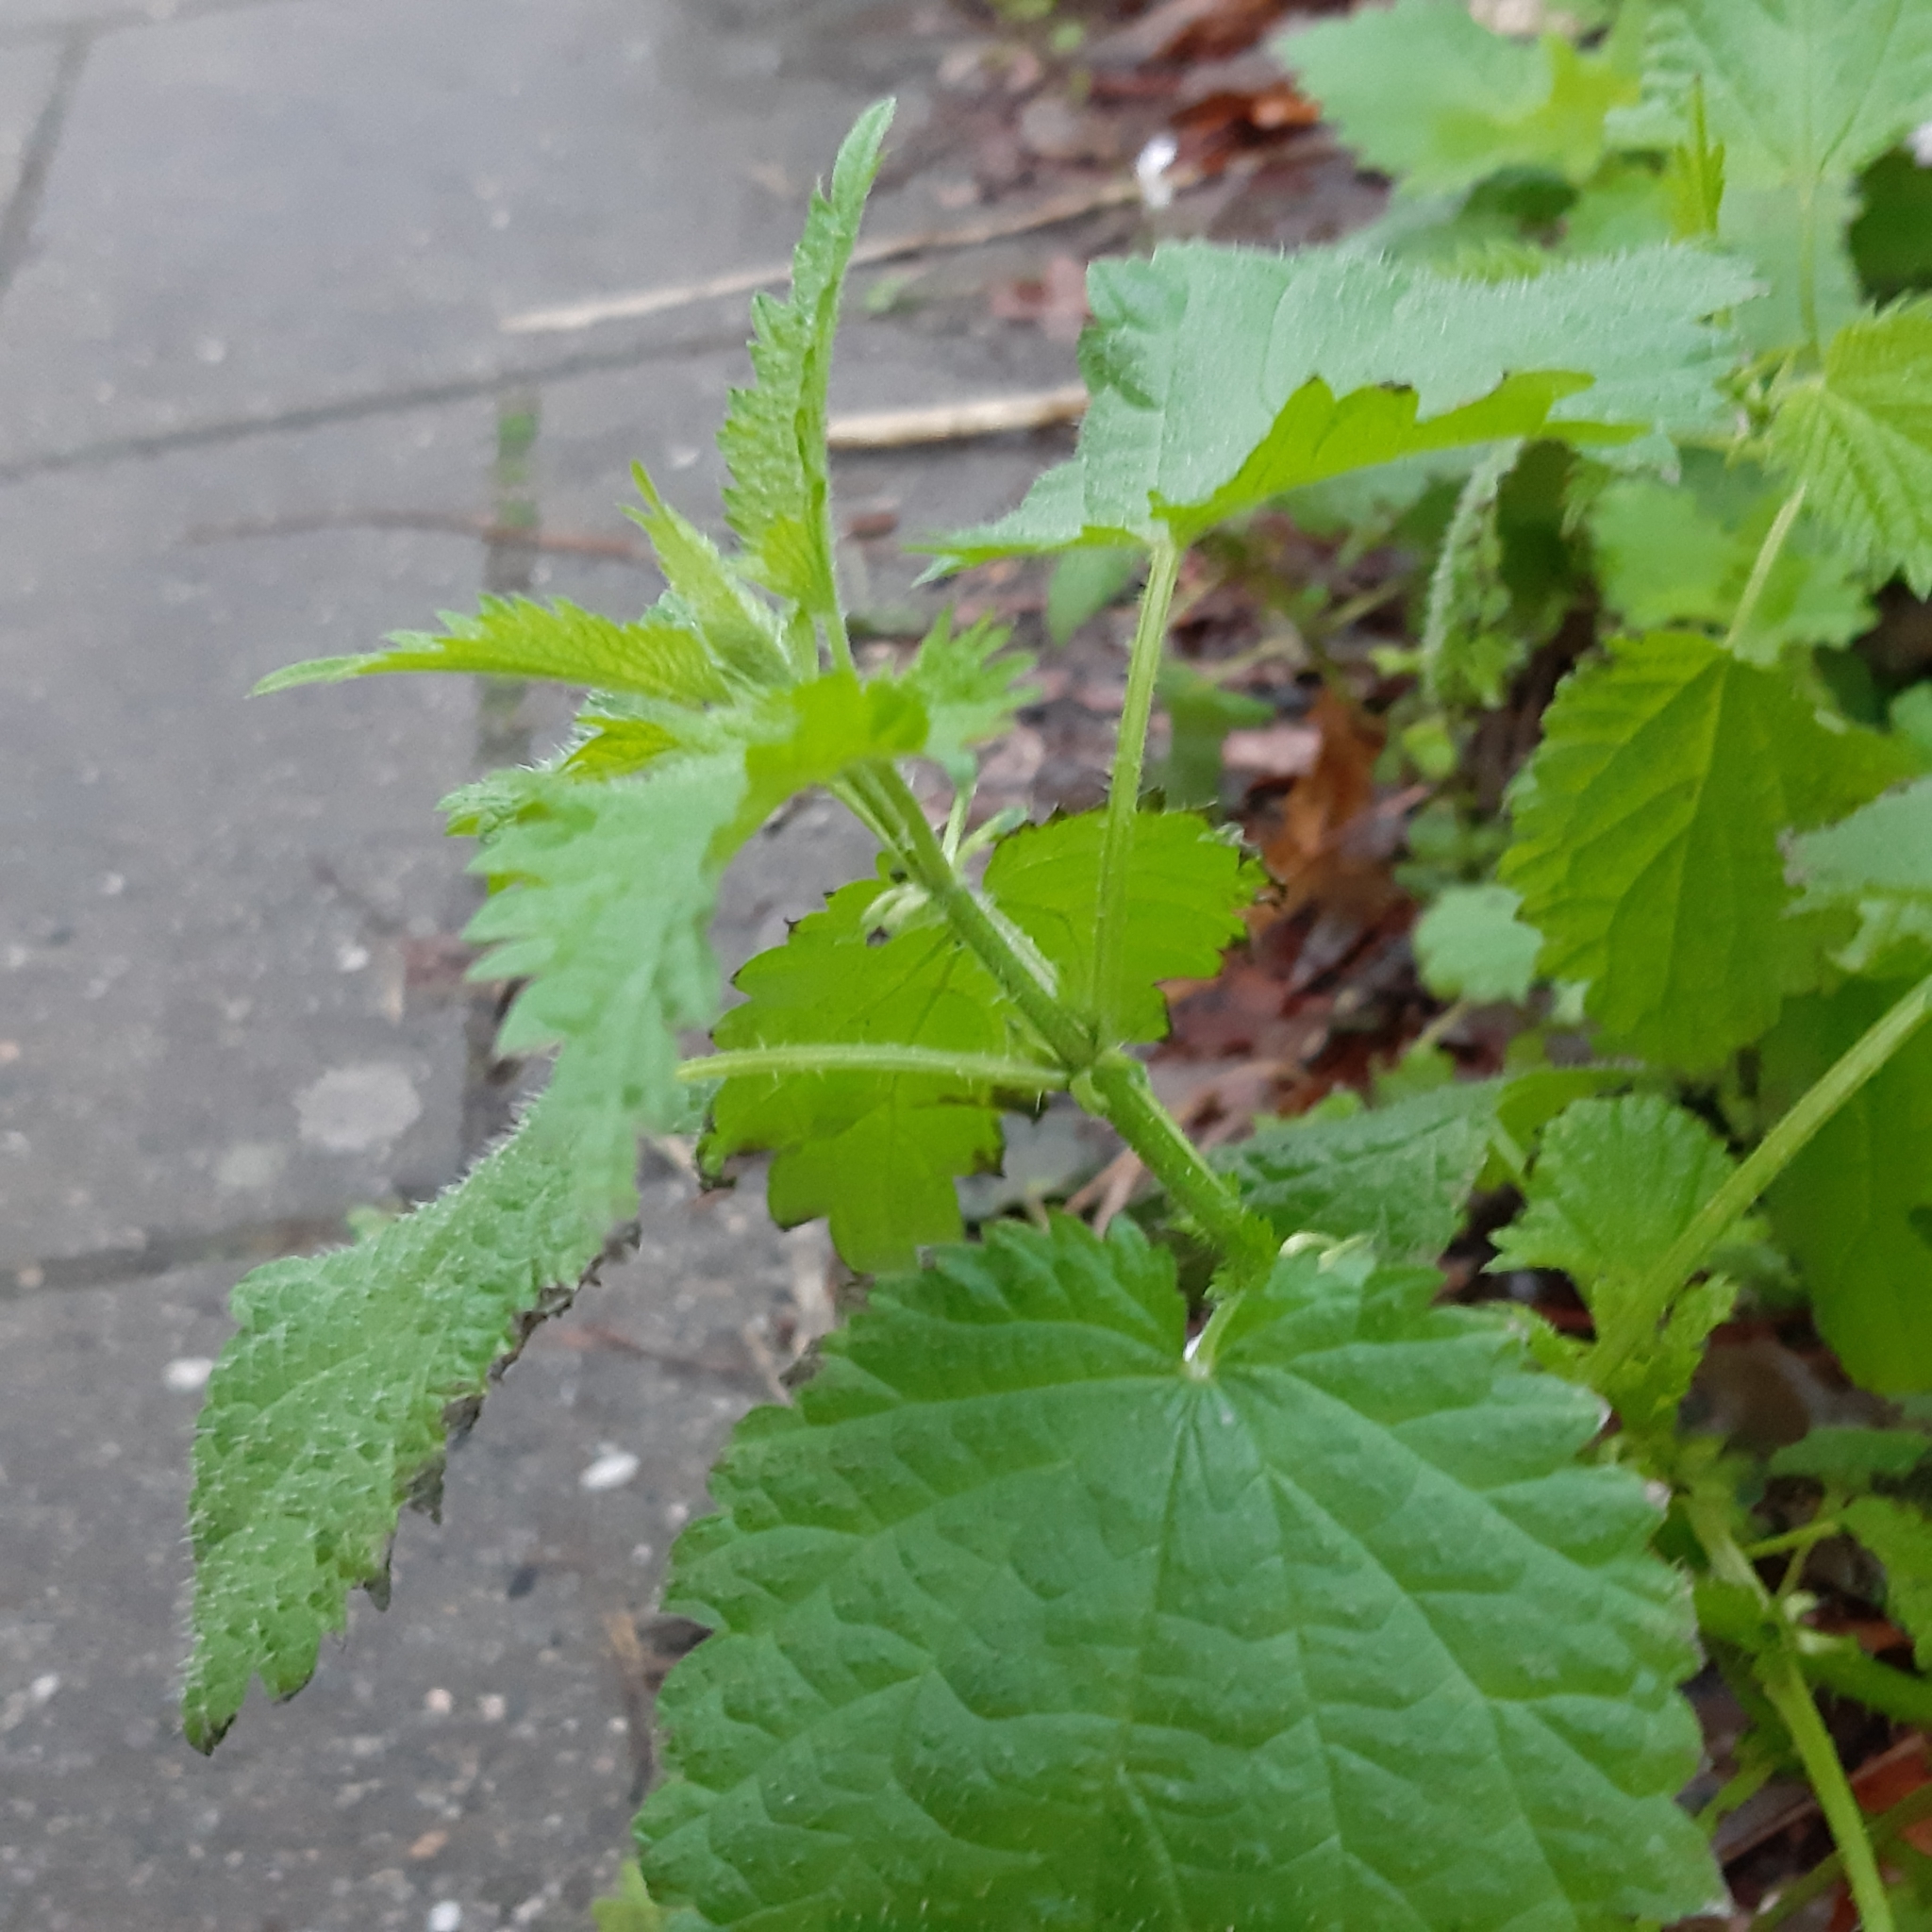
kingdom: Plantae
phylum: Tracheophyta
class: Magnoliopsida
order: Rosales
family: Urticaceae
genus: Urtica
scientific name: Urtica dioica
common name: Common nettle
